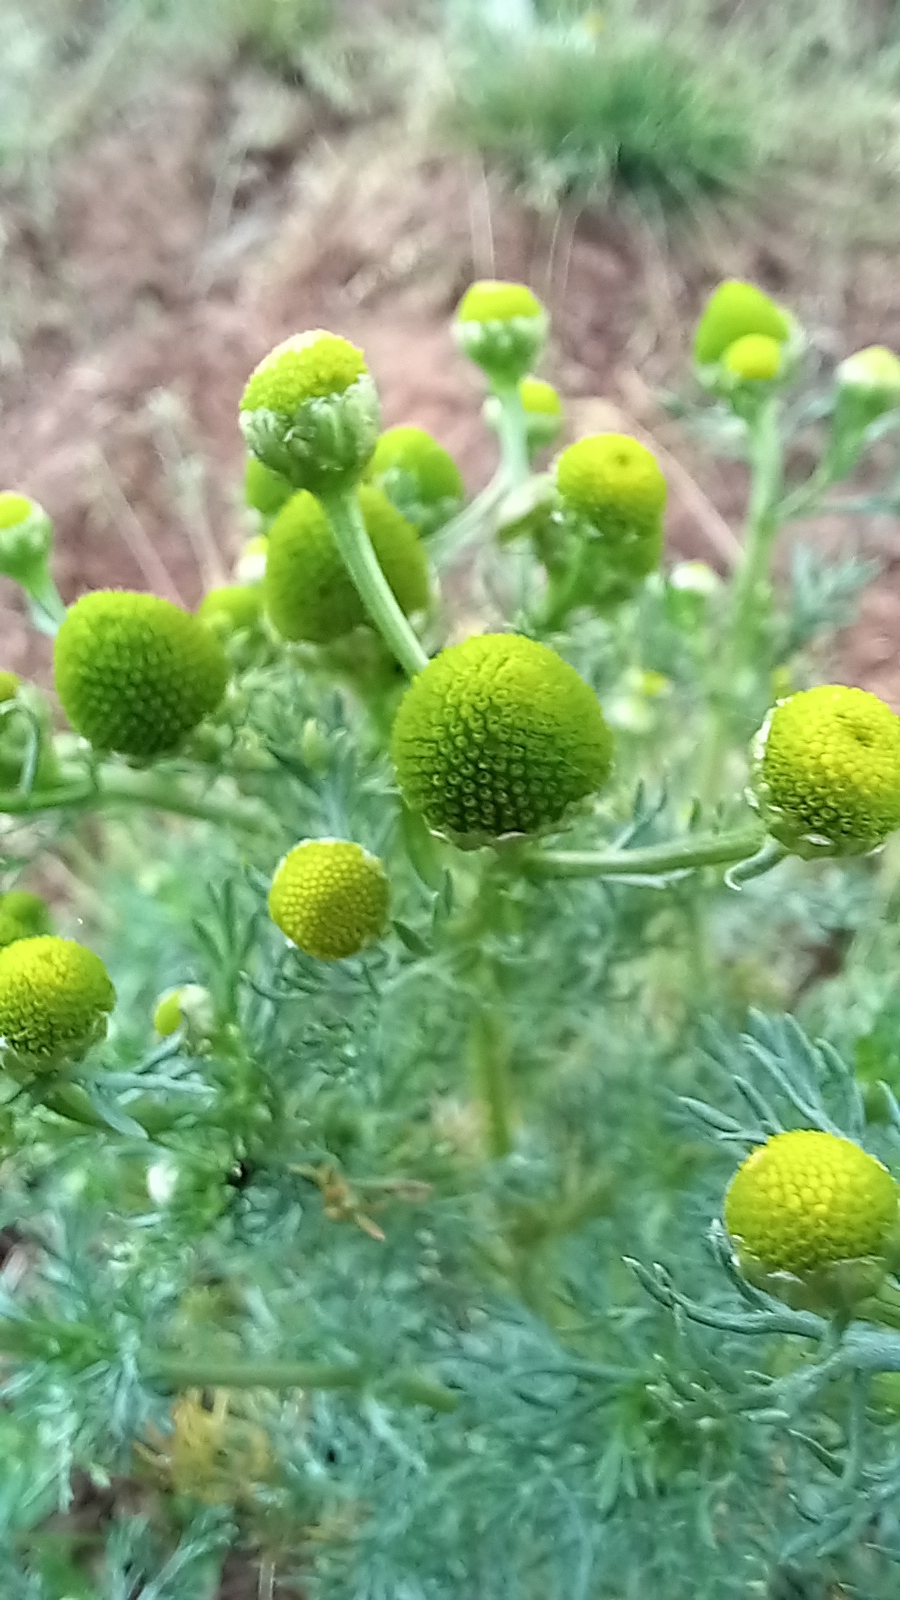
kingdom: Plantae
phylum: Tracheophyta
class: Magnoliopsida
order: Asterales
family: Asteraceae
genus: Matricaria
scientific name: Matricaria discoidea
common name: Disc mayweed
